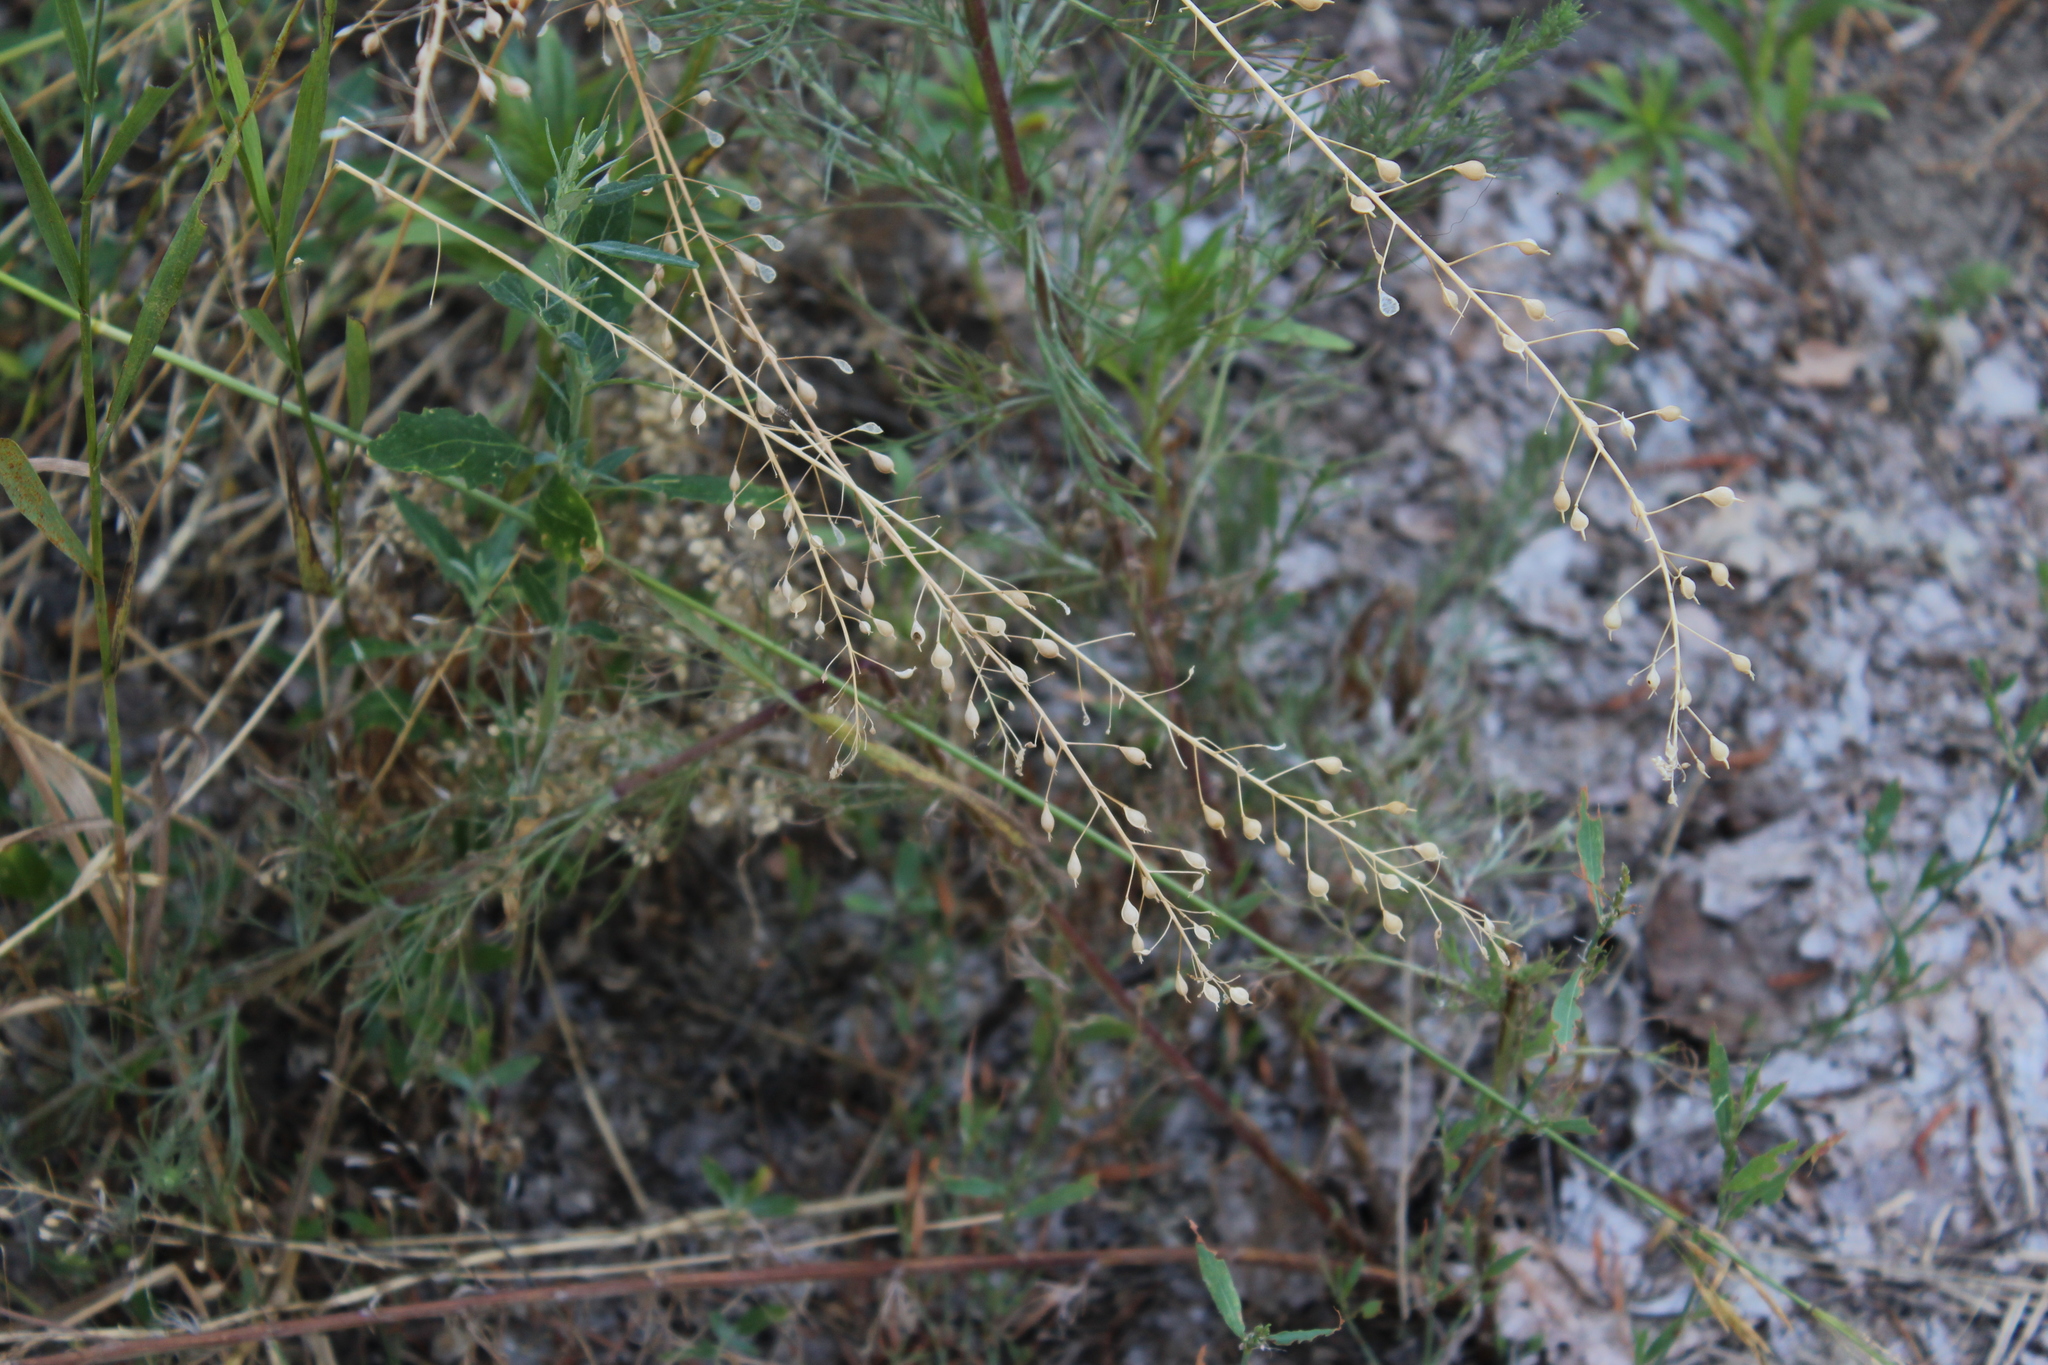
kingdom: Plantae
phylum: Tracheophyta
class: Magnoliopsida
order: Brassicales
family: Brassicaceae
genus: Camelina
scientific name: Camelina microcarpa
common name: Lesser gold-of-pleasure
